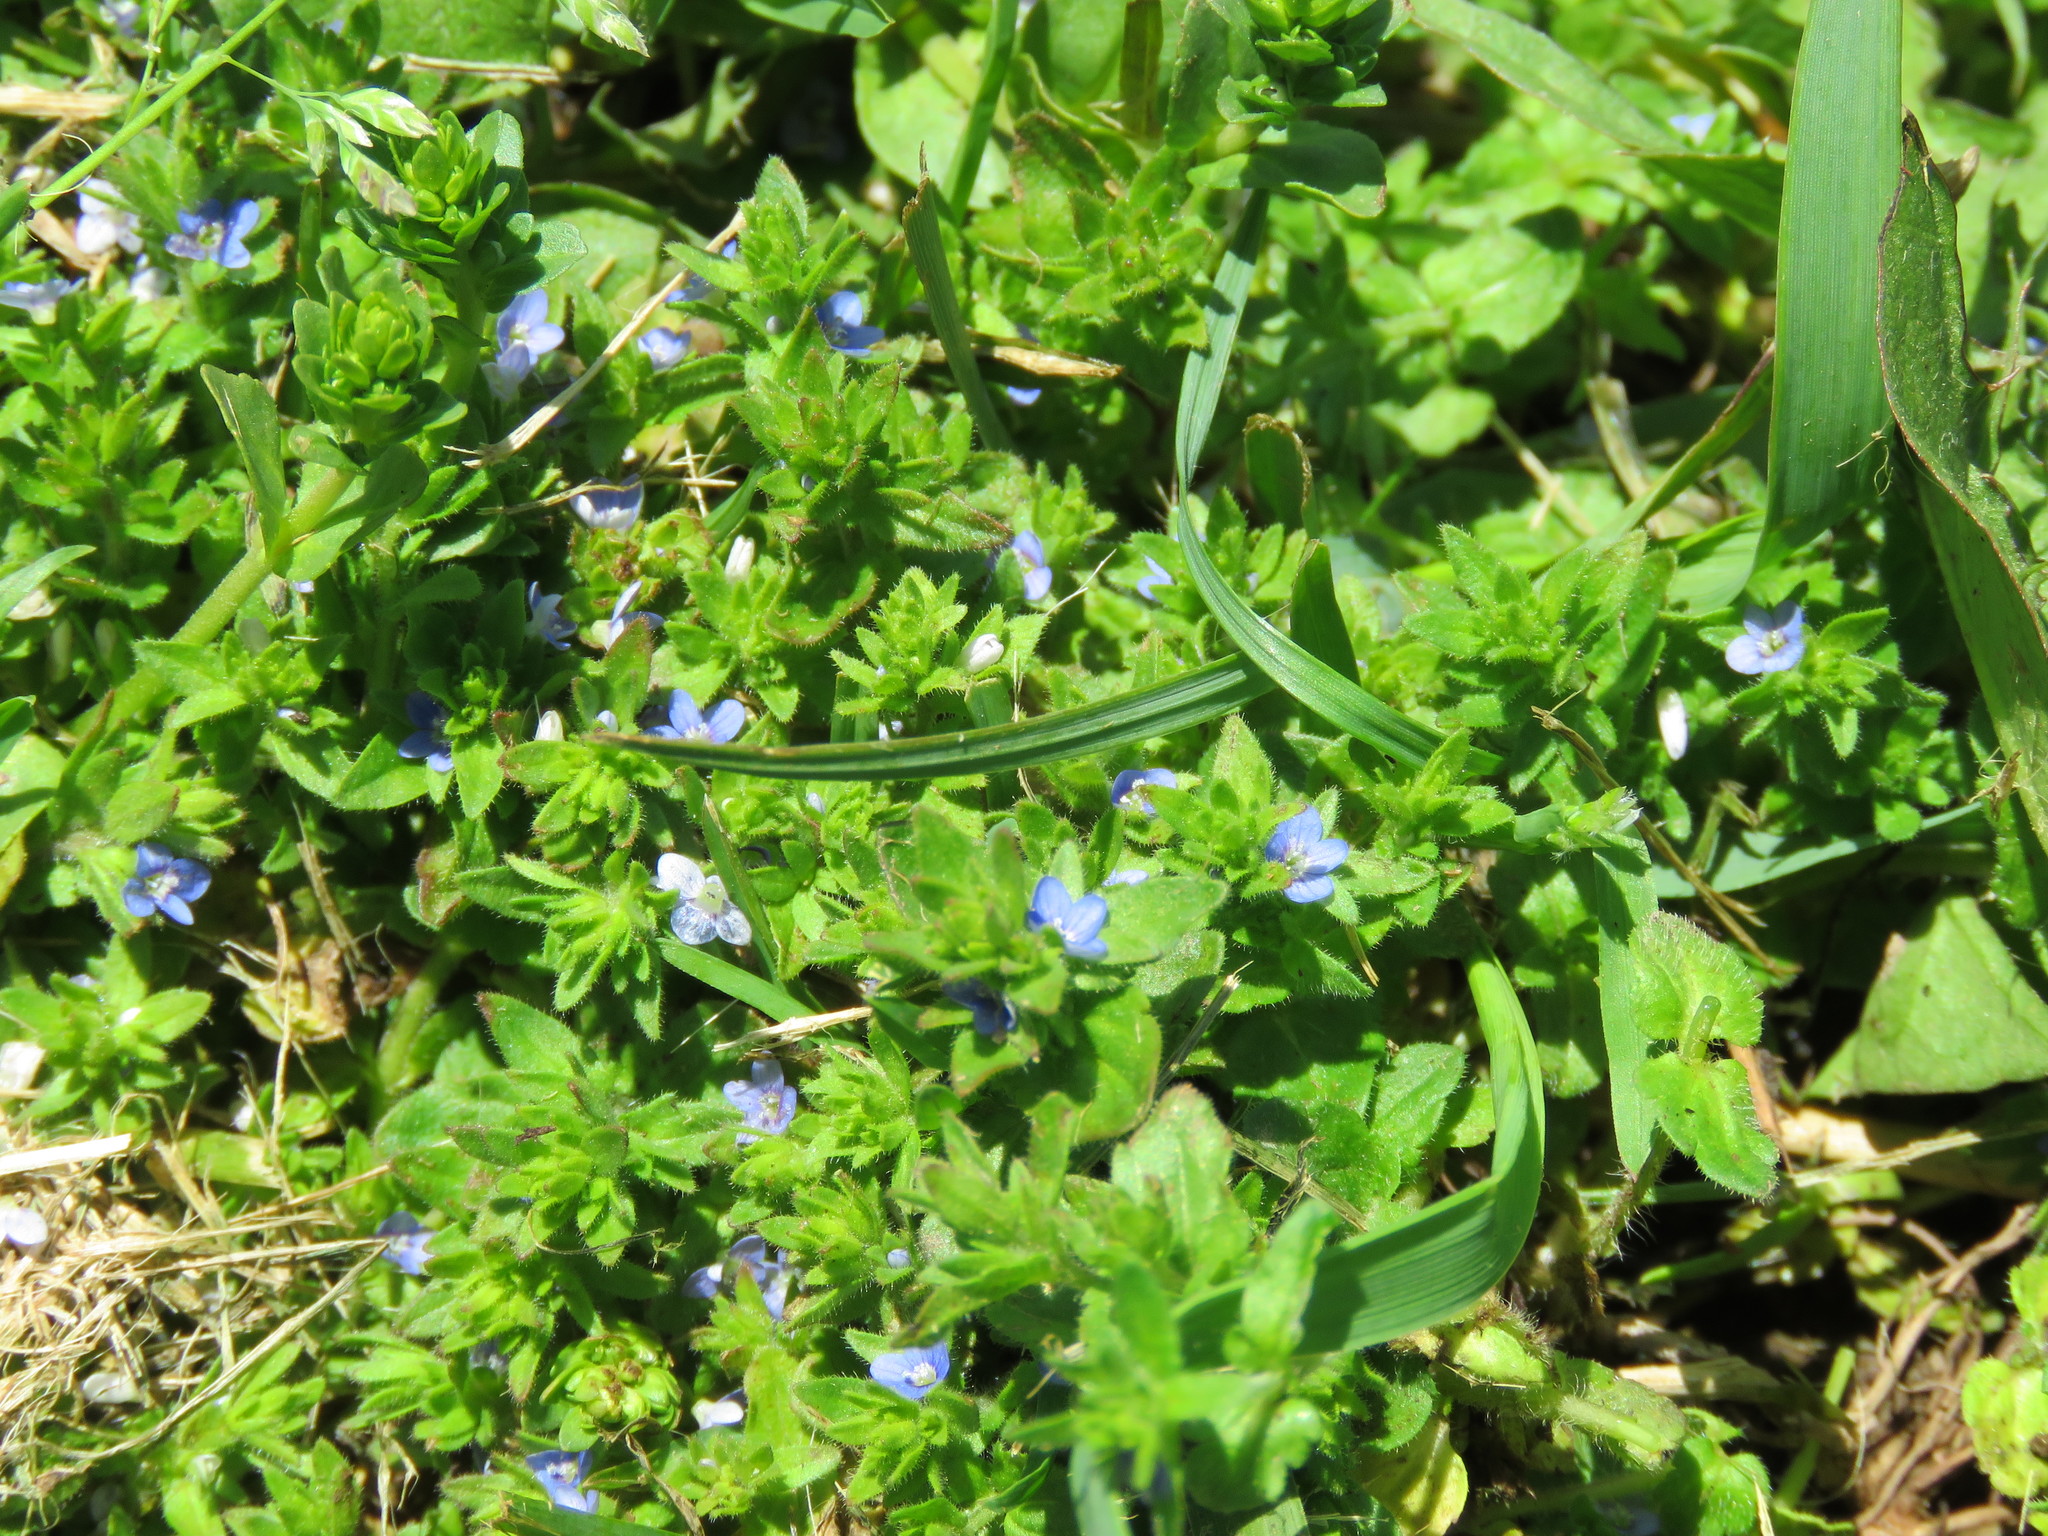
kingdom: Plantae
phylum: Tracheophyta
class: Magnoliopsida
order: Lamiales
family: Plantaginaceae
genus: Veronica
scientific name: Veronica arvensis
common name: Corn speedwell
